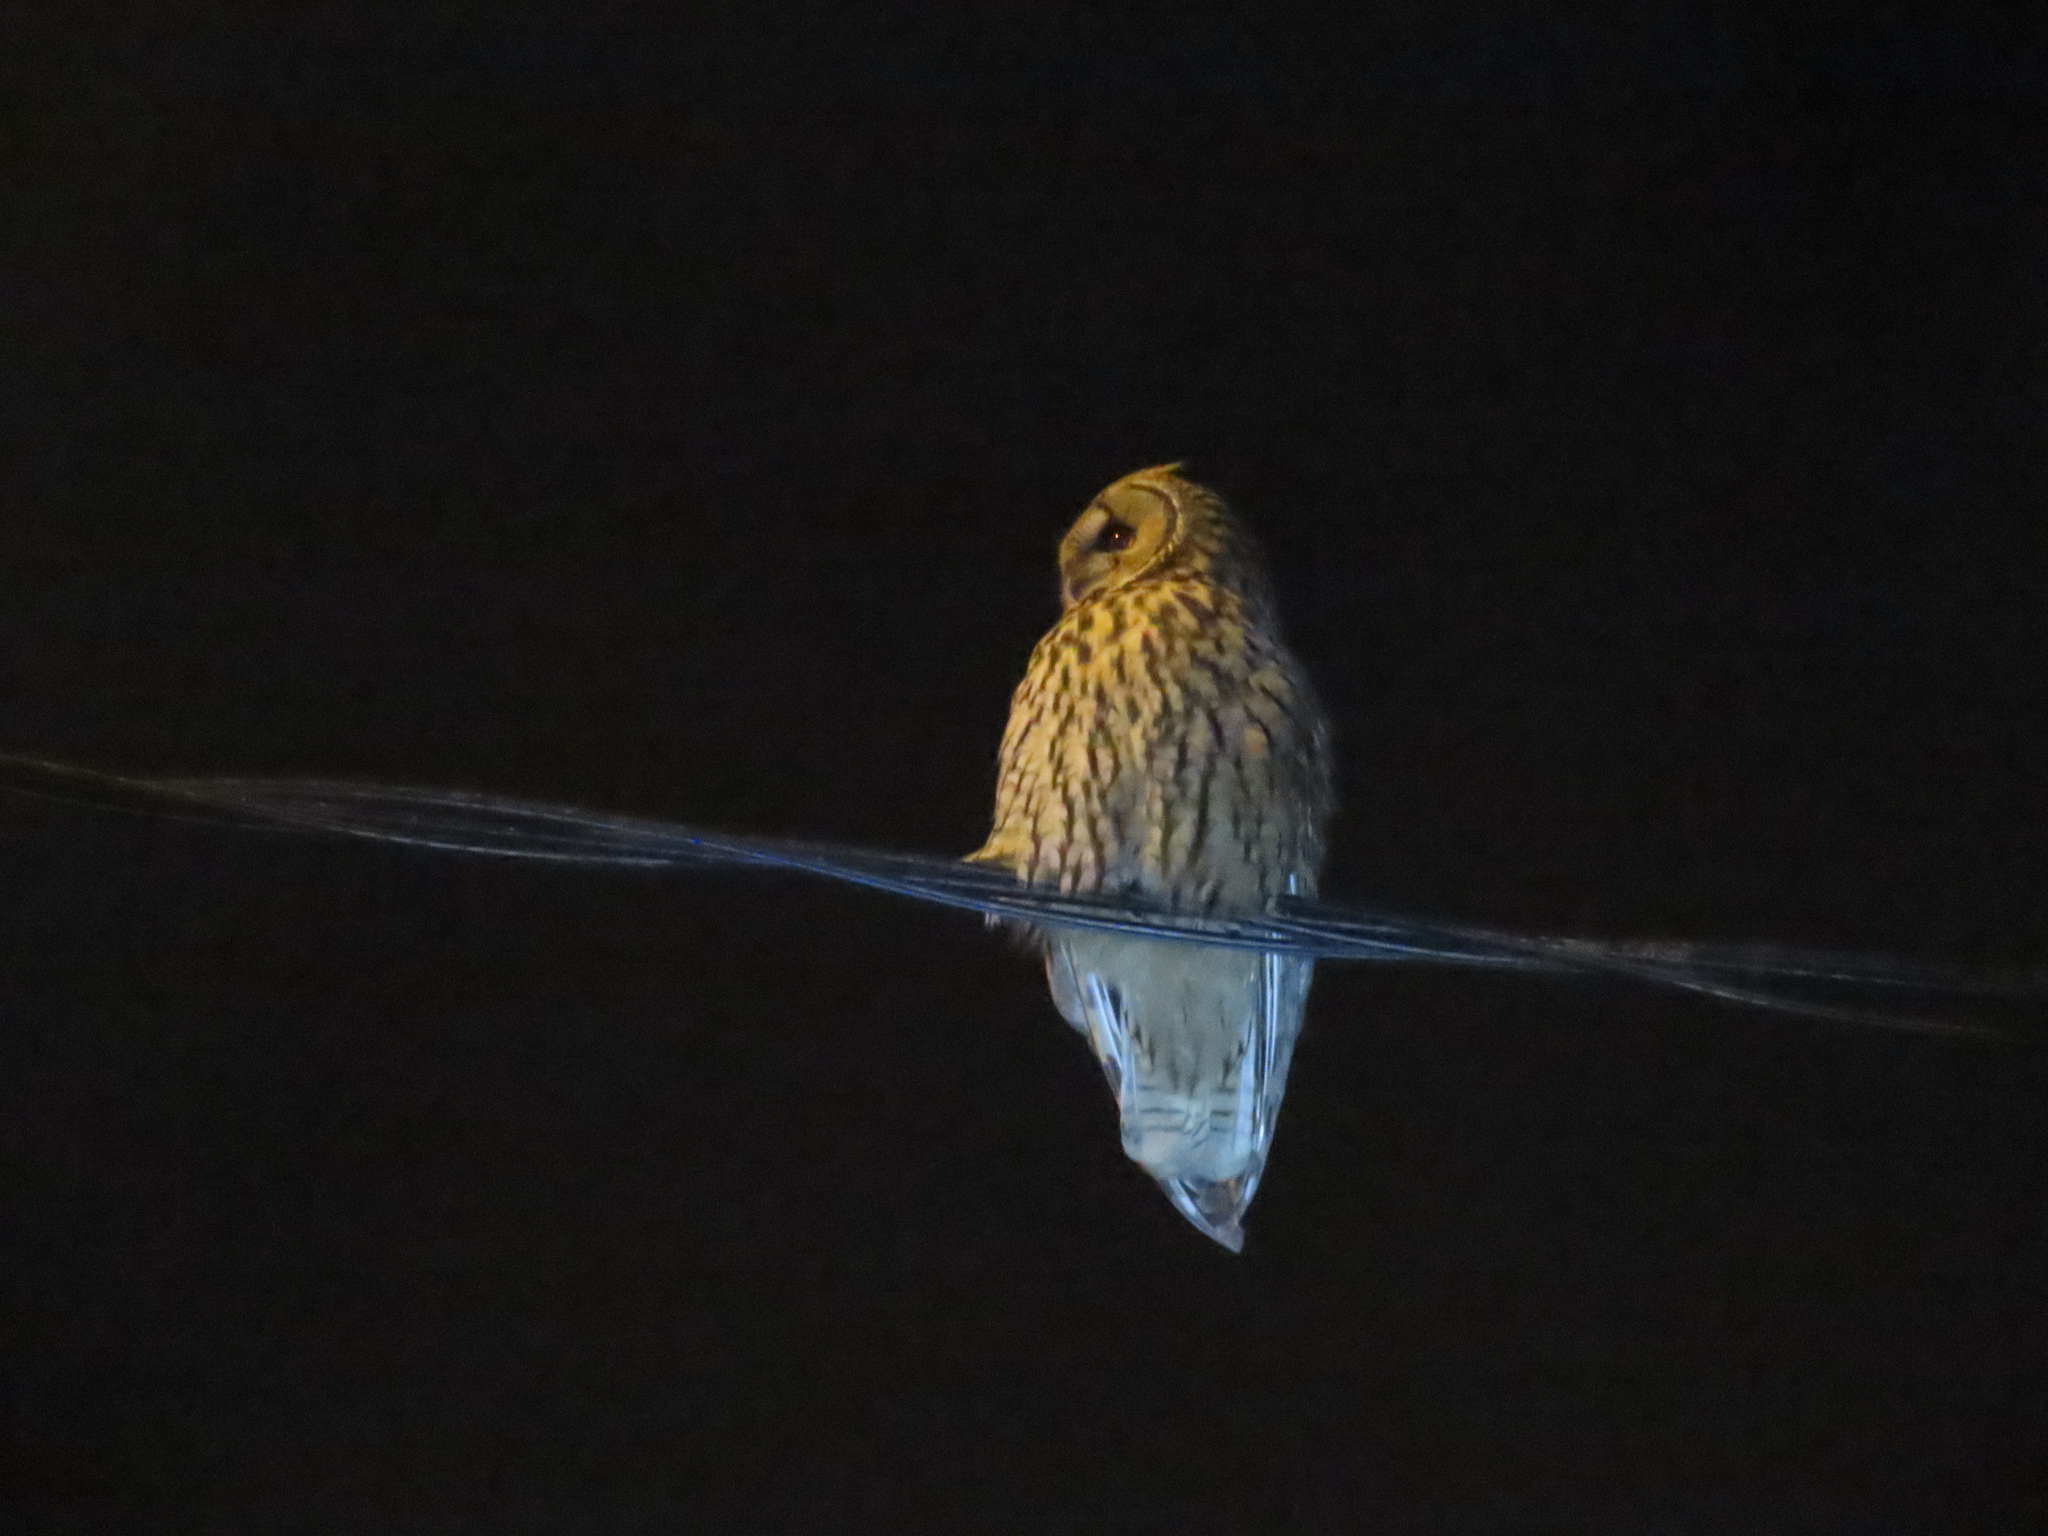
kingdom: Animalia
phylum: Chordata
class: Aves
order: Strigiformes
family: Strigidae
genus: Asio
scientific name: Asio otus
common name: Long-eared owl
